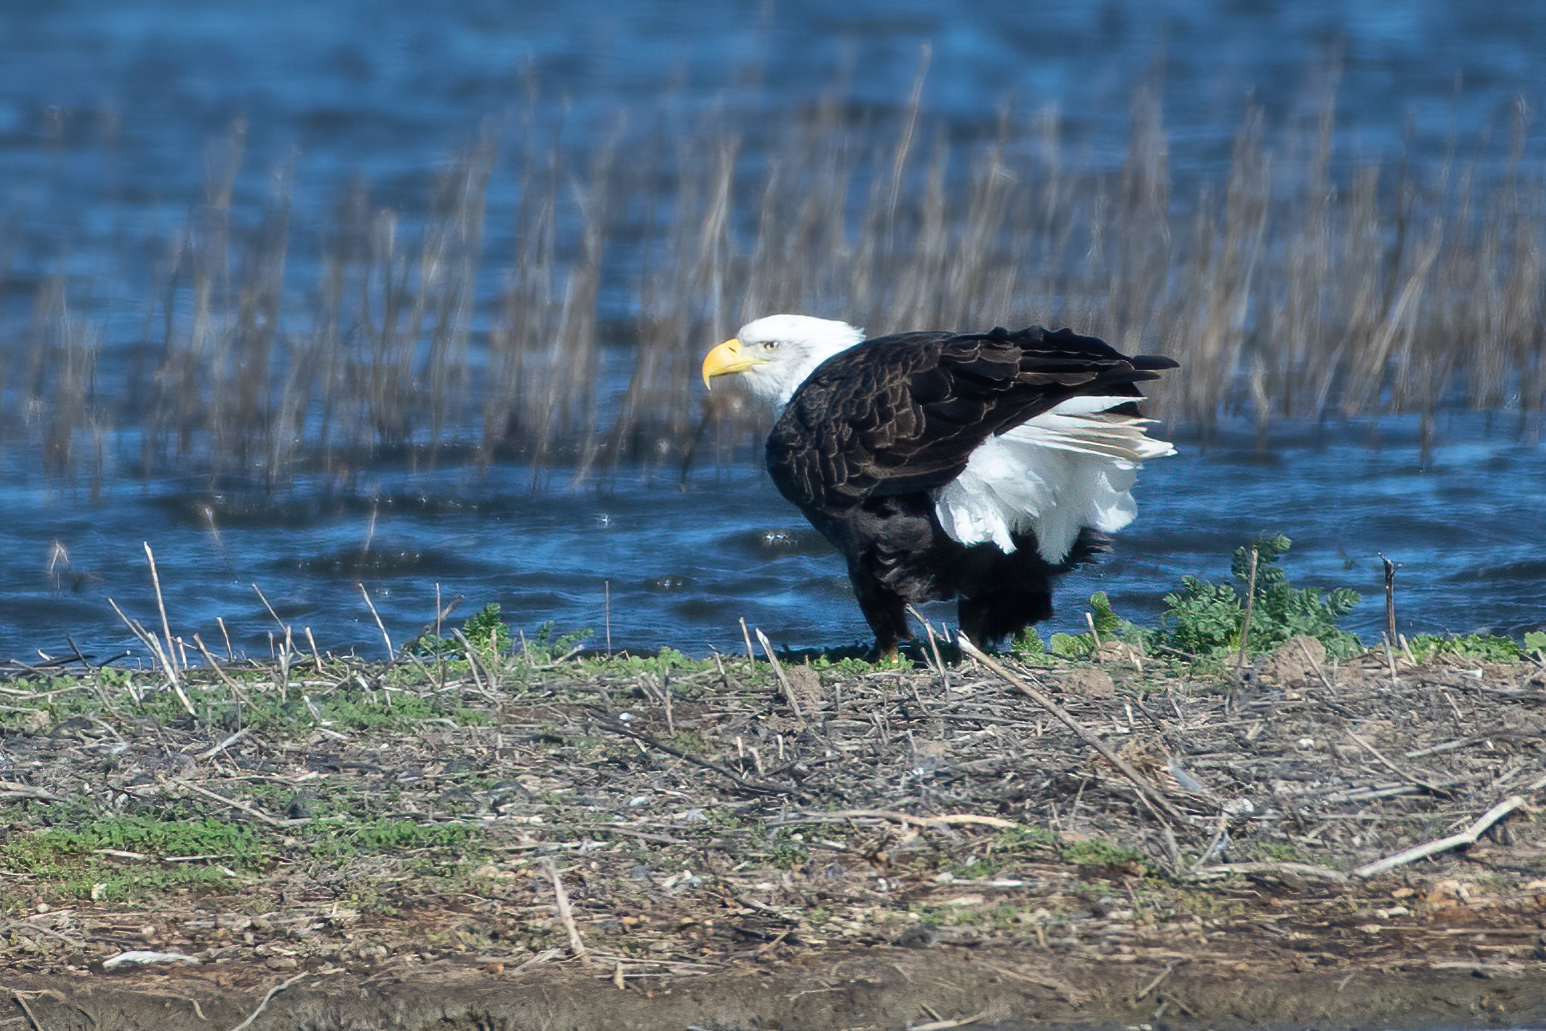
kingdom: Animalia
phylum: Chordata
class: Aves
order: Accipitriformes
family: Accipitridae
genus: Haliaeetus
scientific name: Haliaeetus leucocephalus
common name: Bald eagle
